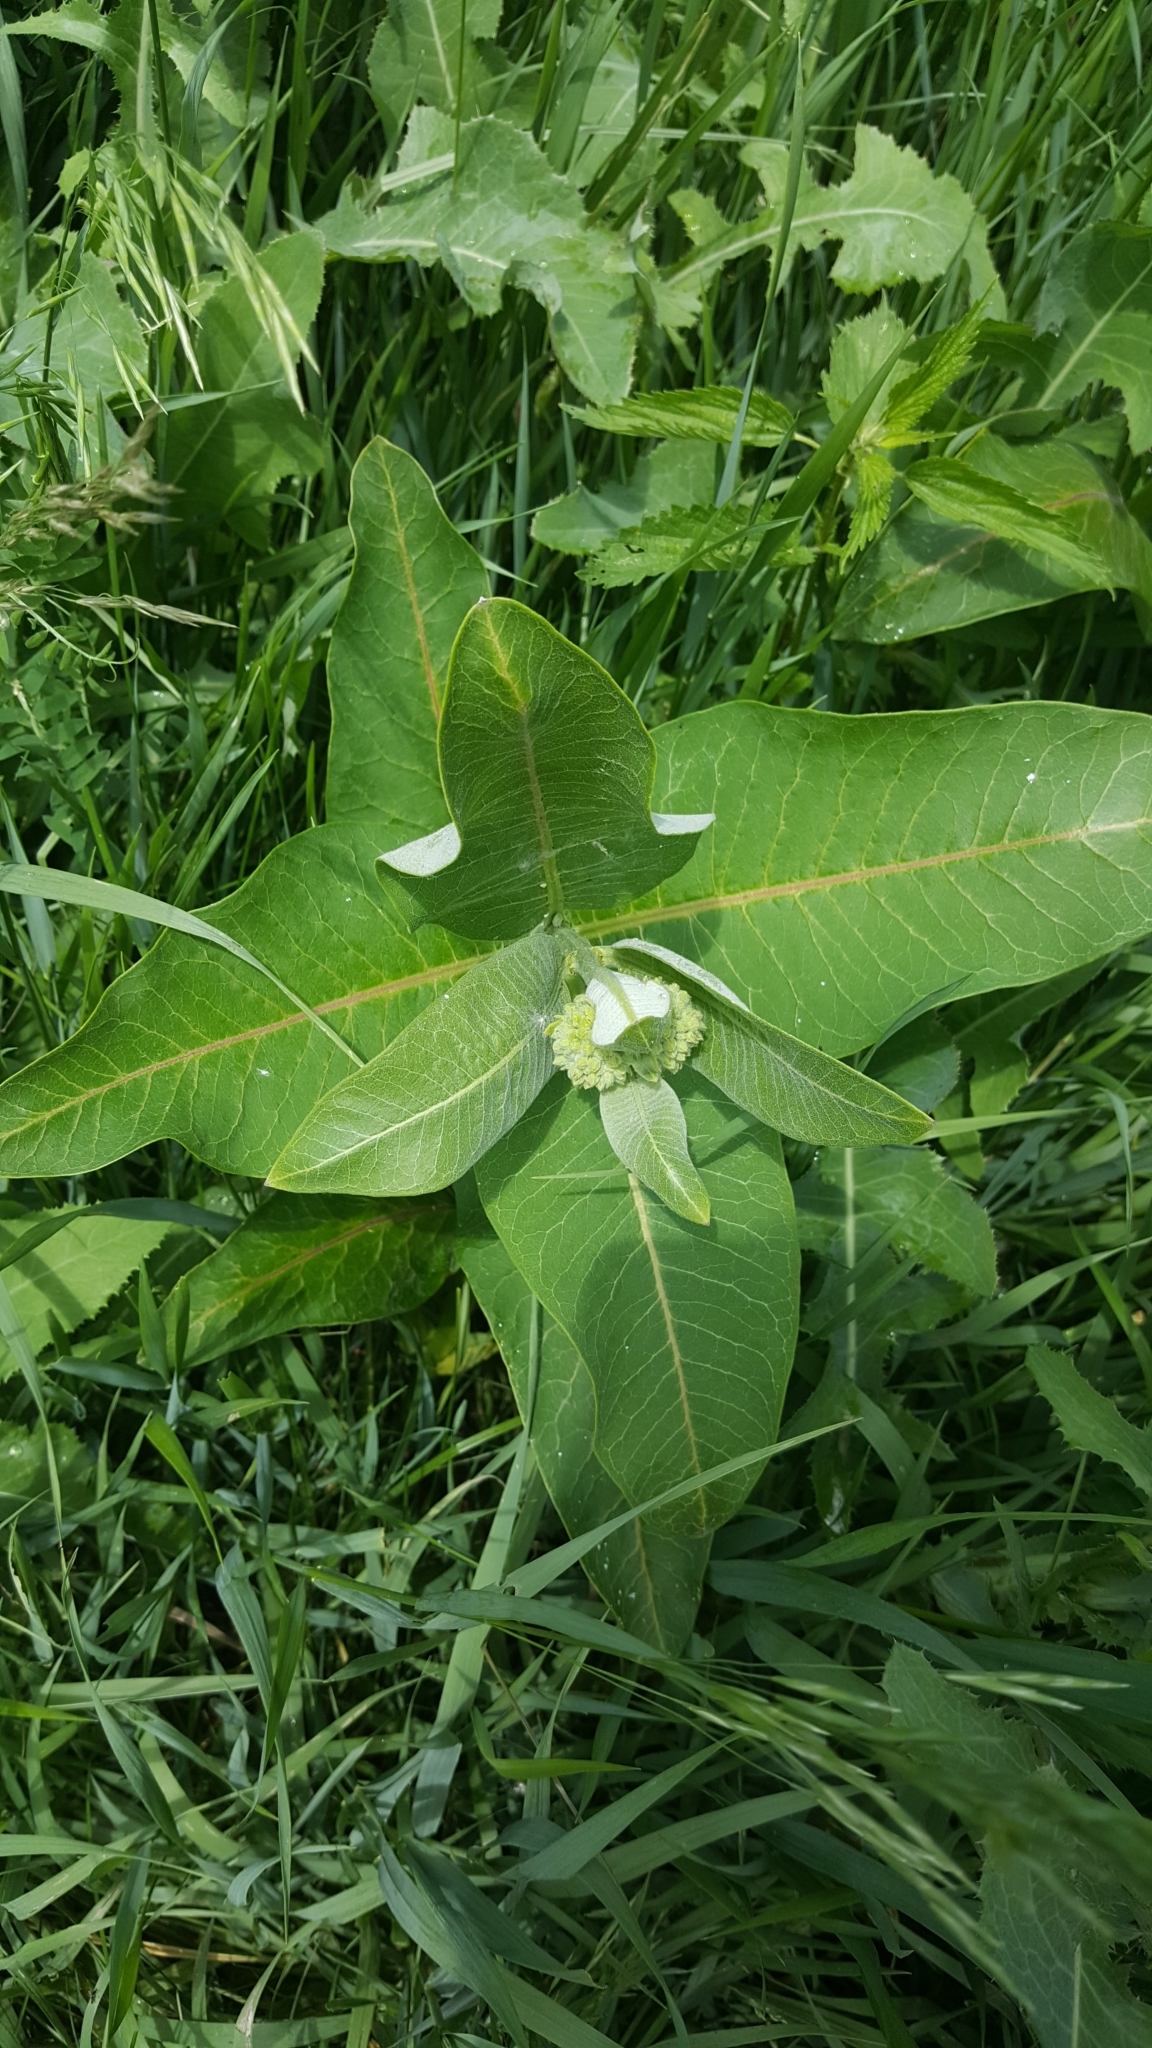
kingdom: Plantae
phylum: Tracheophyta
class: Magnoliopsida
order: Gentianales
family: Apocynaceae
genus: Asclepias
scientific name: Asclepias syriaca
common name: Common milkweed
